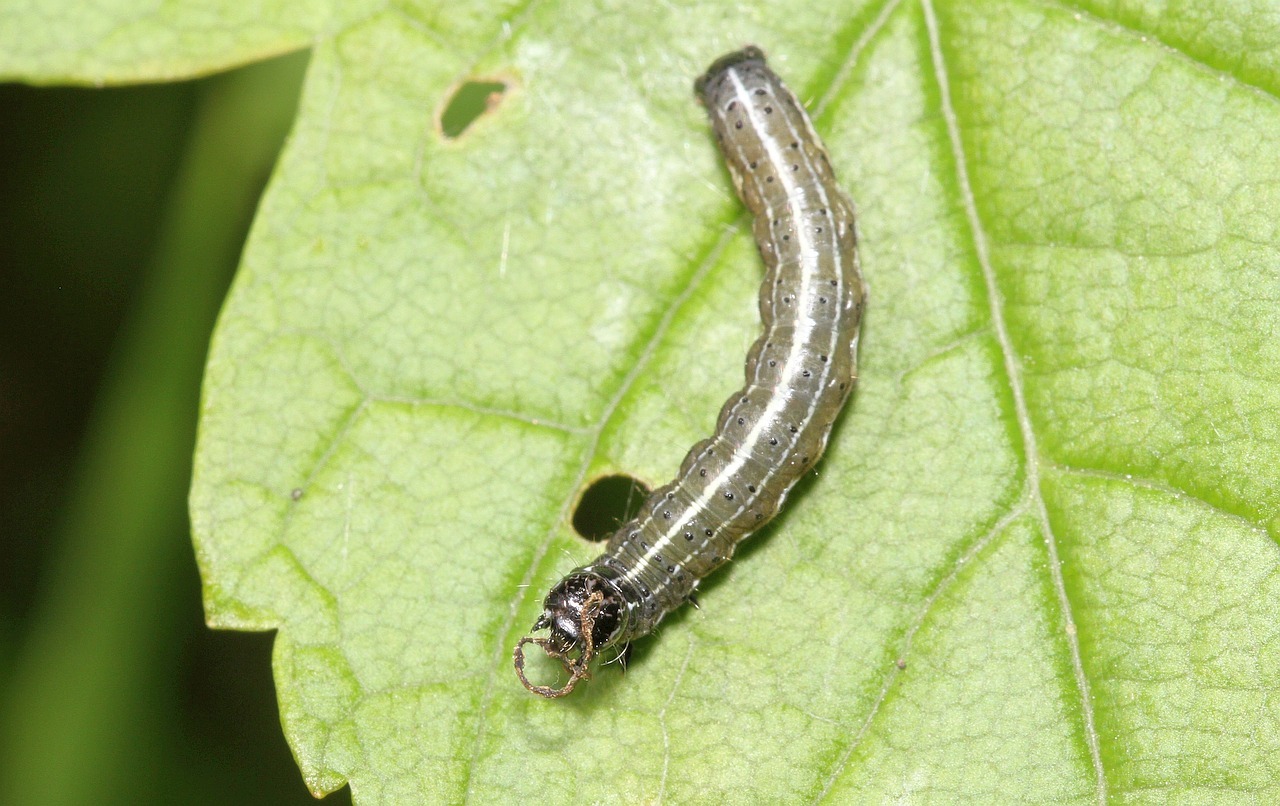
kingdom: Animalia
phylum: Arthropoda
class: Insecta
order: Lepidoptera
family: Noctuidae
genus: Orthosia
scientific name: Orthosia cruda
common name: Small quaker
